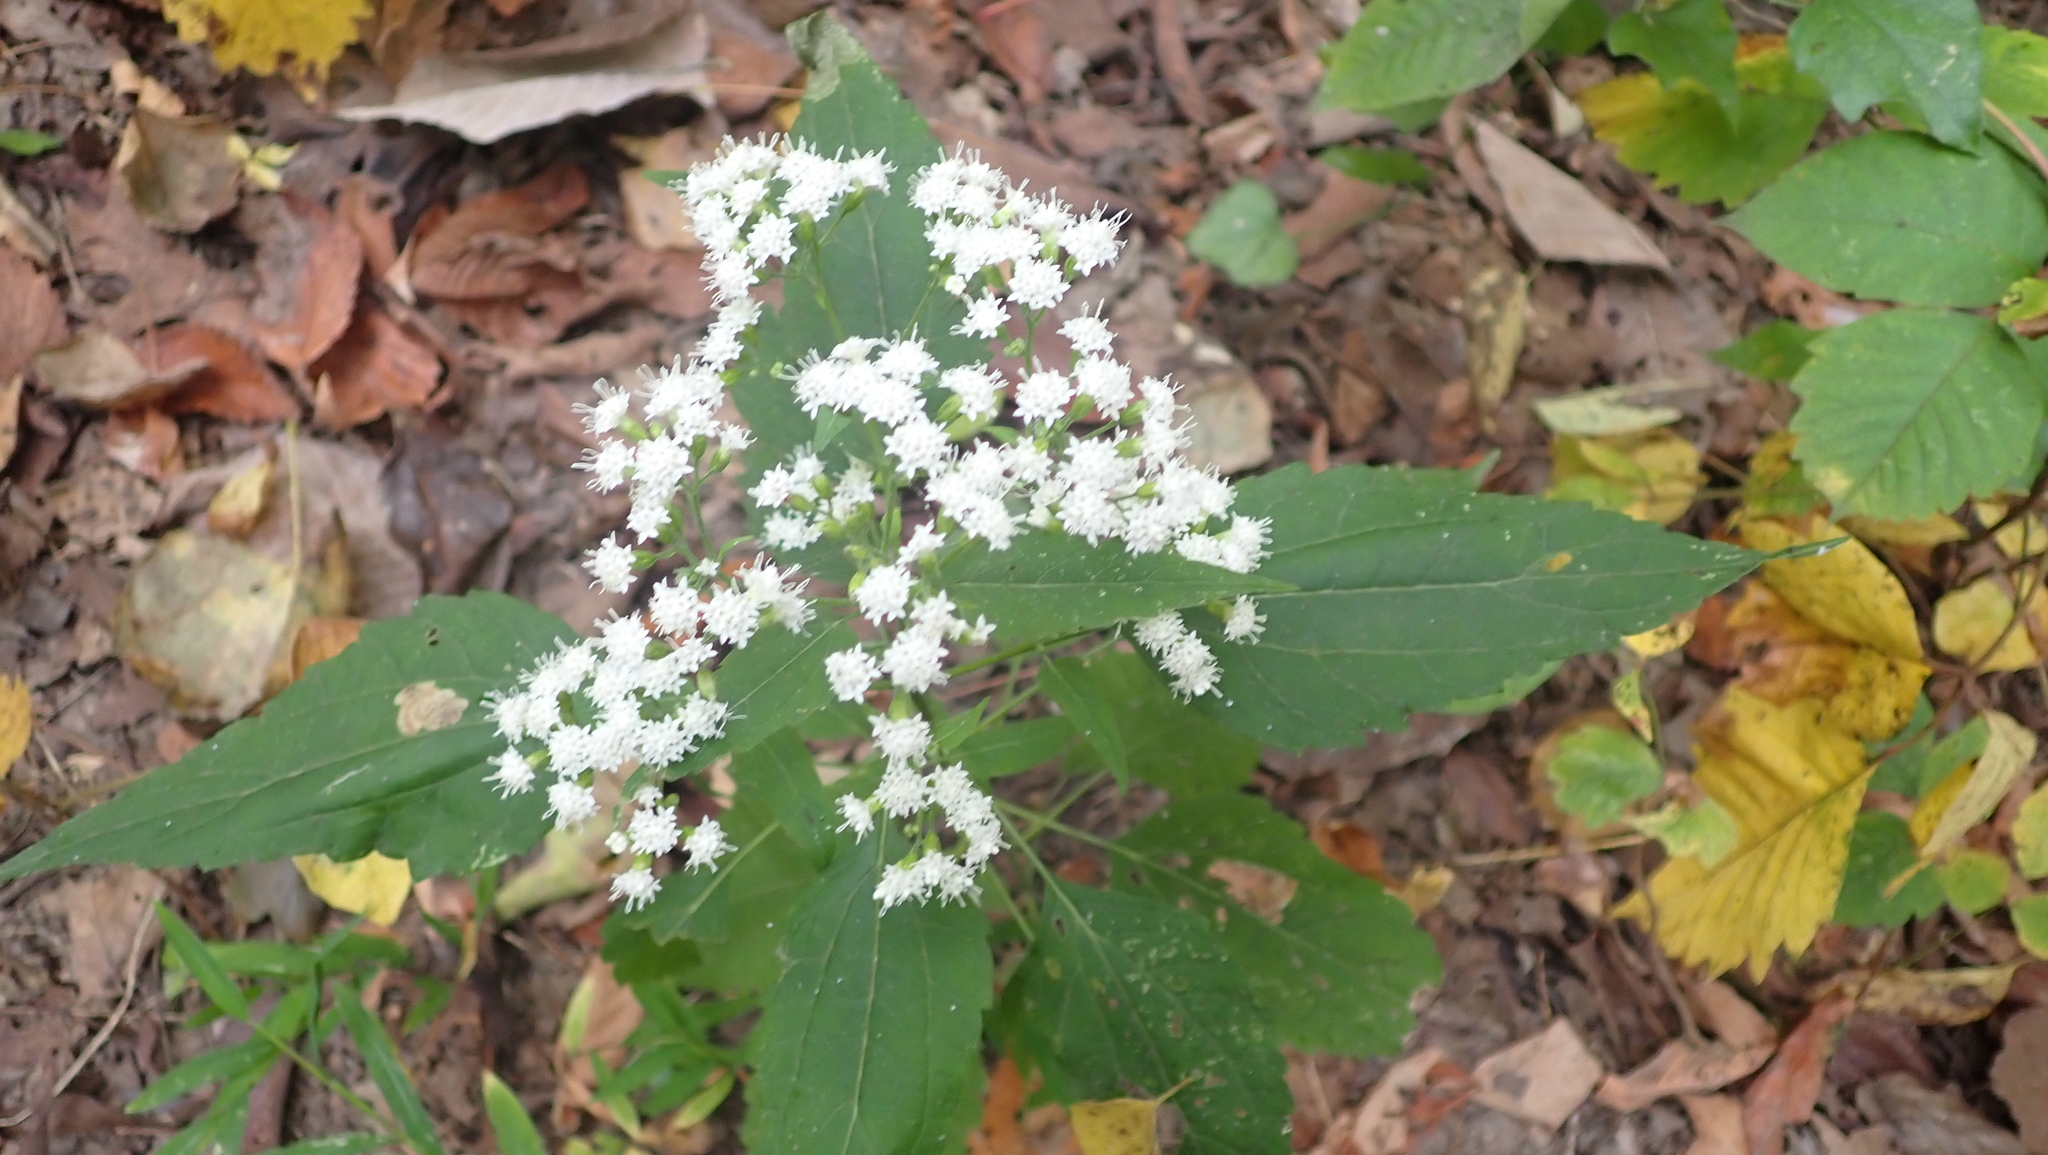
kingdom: Plantae
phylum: Tracheophyta
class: Magnoliopsida
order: Asterales
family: Asteraceae
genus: Ageratina
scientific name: Ageratina altissima
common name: White snakeroot
